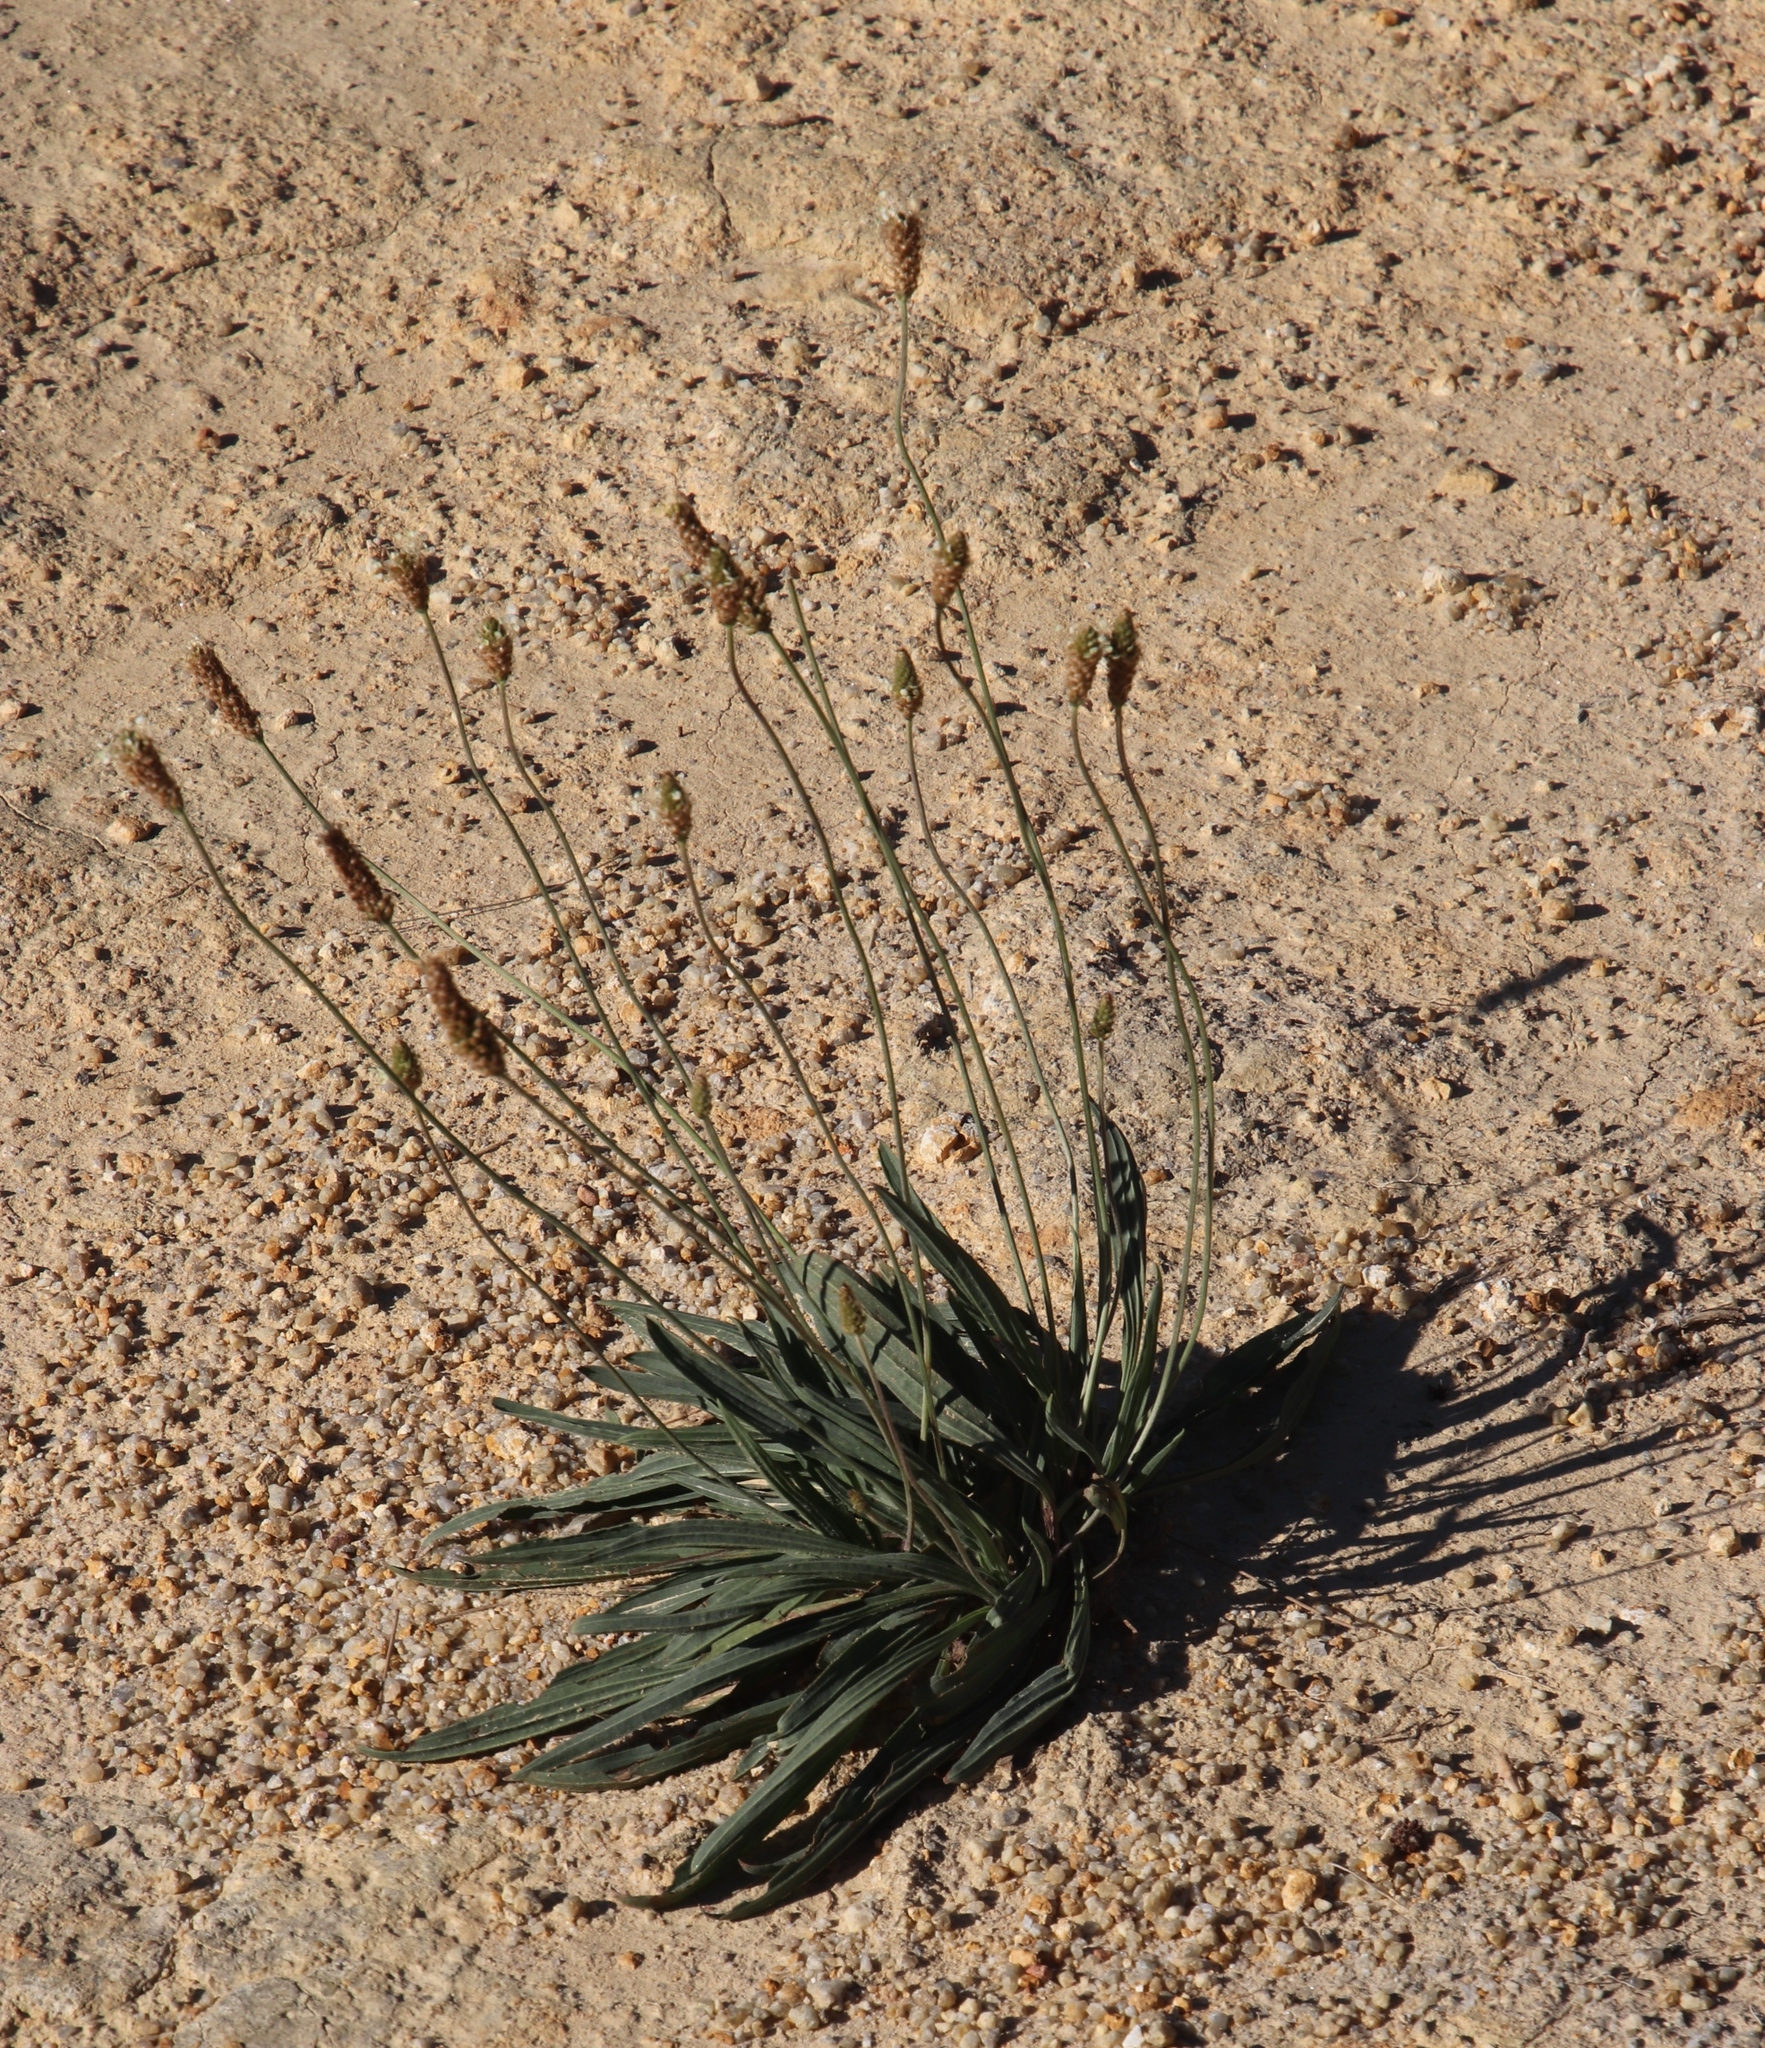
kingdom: Plantae
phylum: Tracheophyta
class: Magnoliopsida
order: Lamiales
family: Plantaginaceae
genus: Plantago
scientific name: Plantago lanceolata
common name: Ribwort plantain
